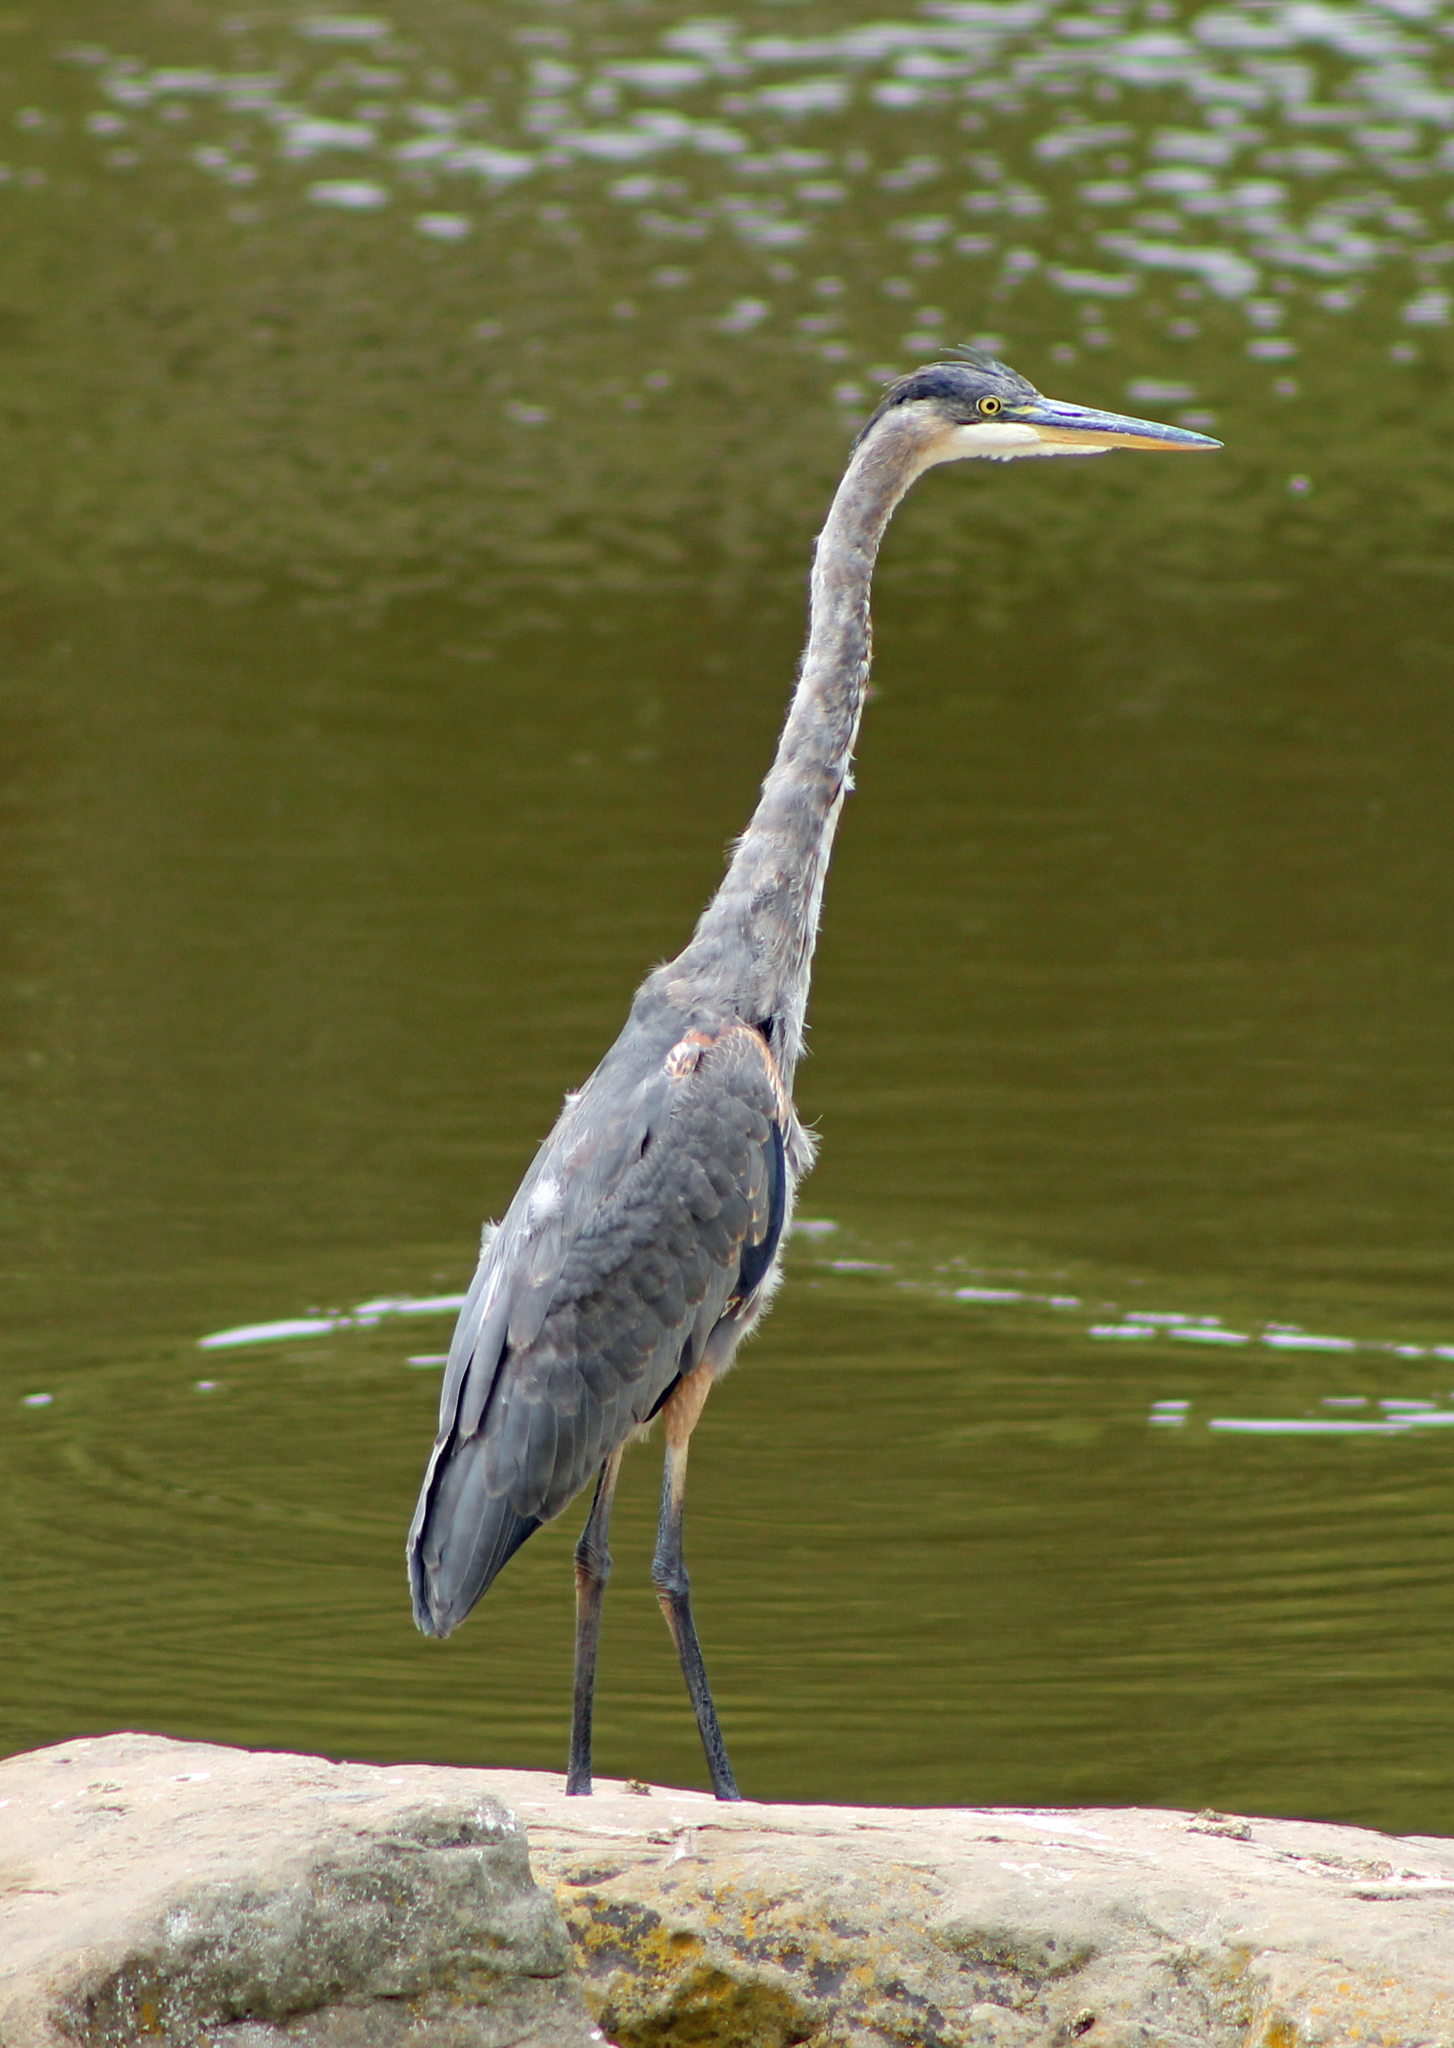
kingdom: Animalia
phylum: Chordata
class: Aves
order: Pelecaniformes
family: Ardeidae
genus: Ardea
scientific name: Ardea herodias
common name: Great blue heron
